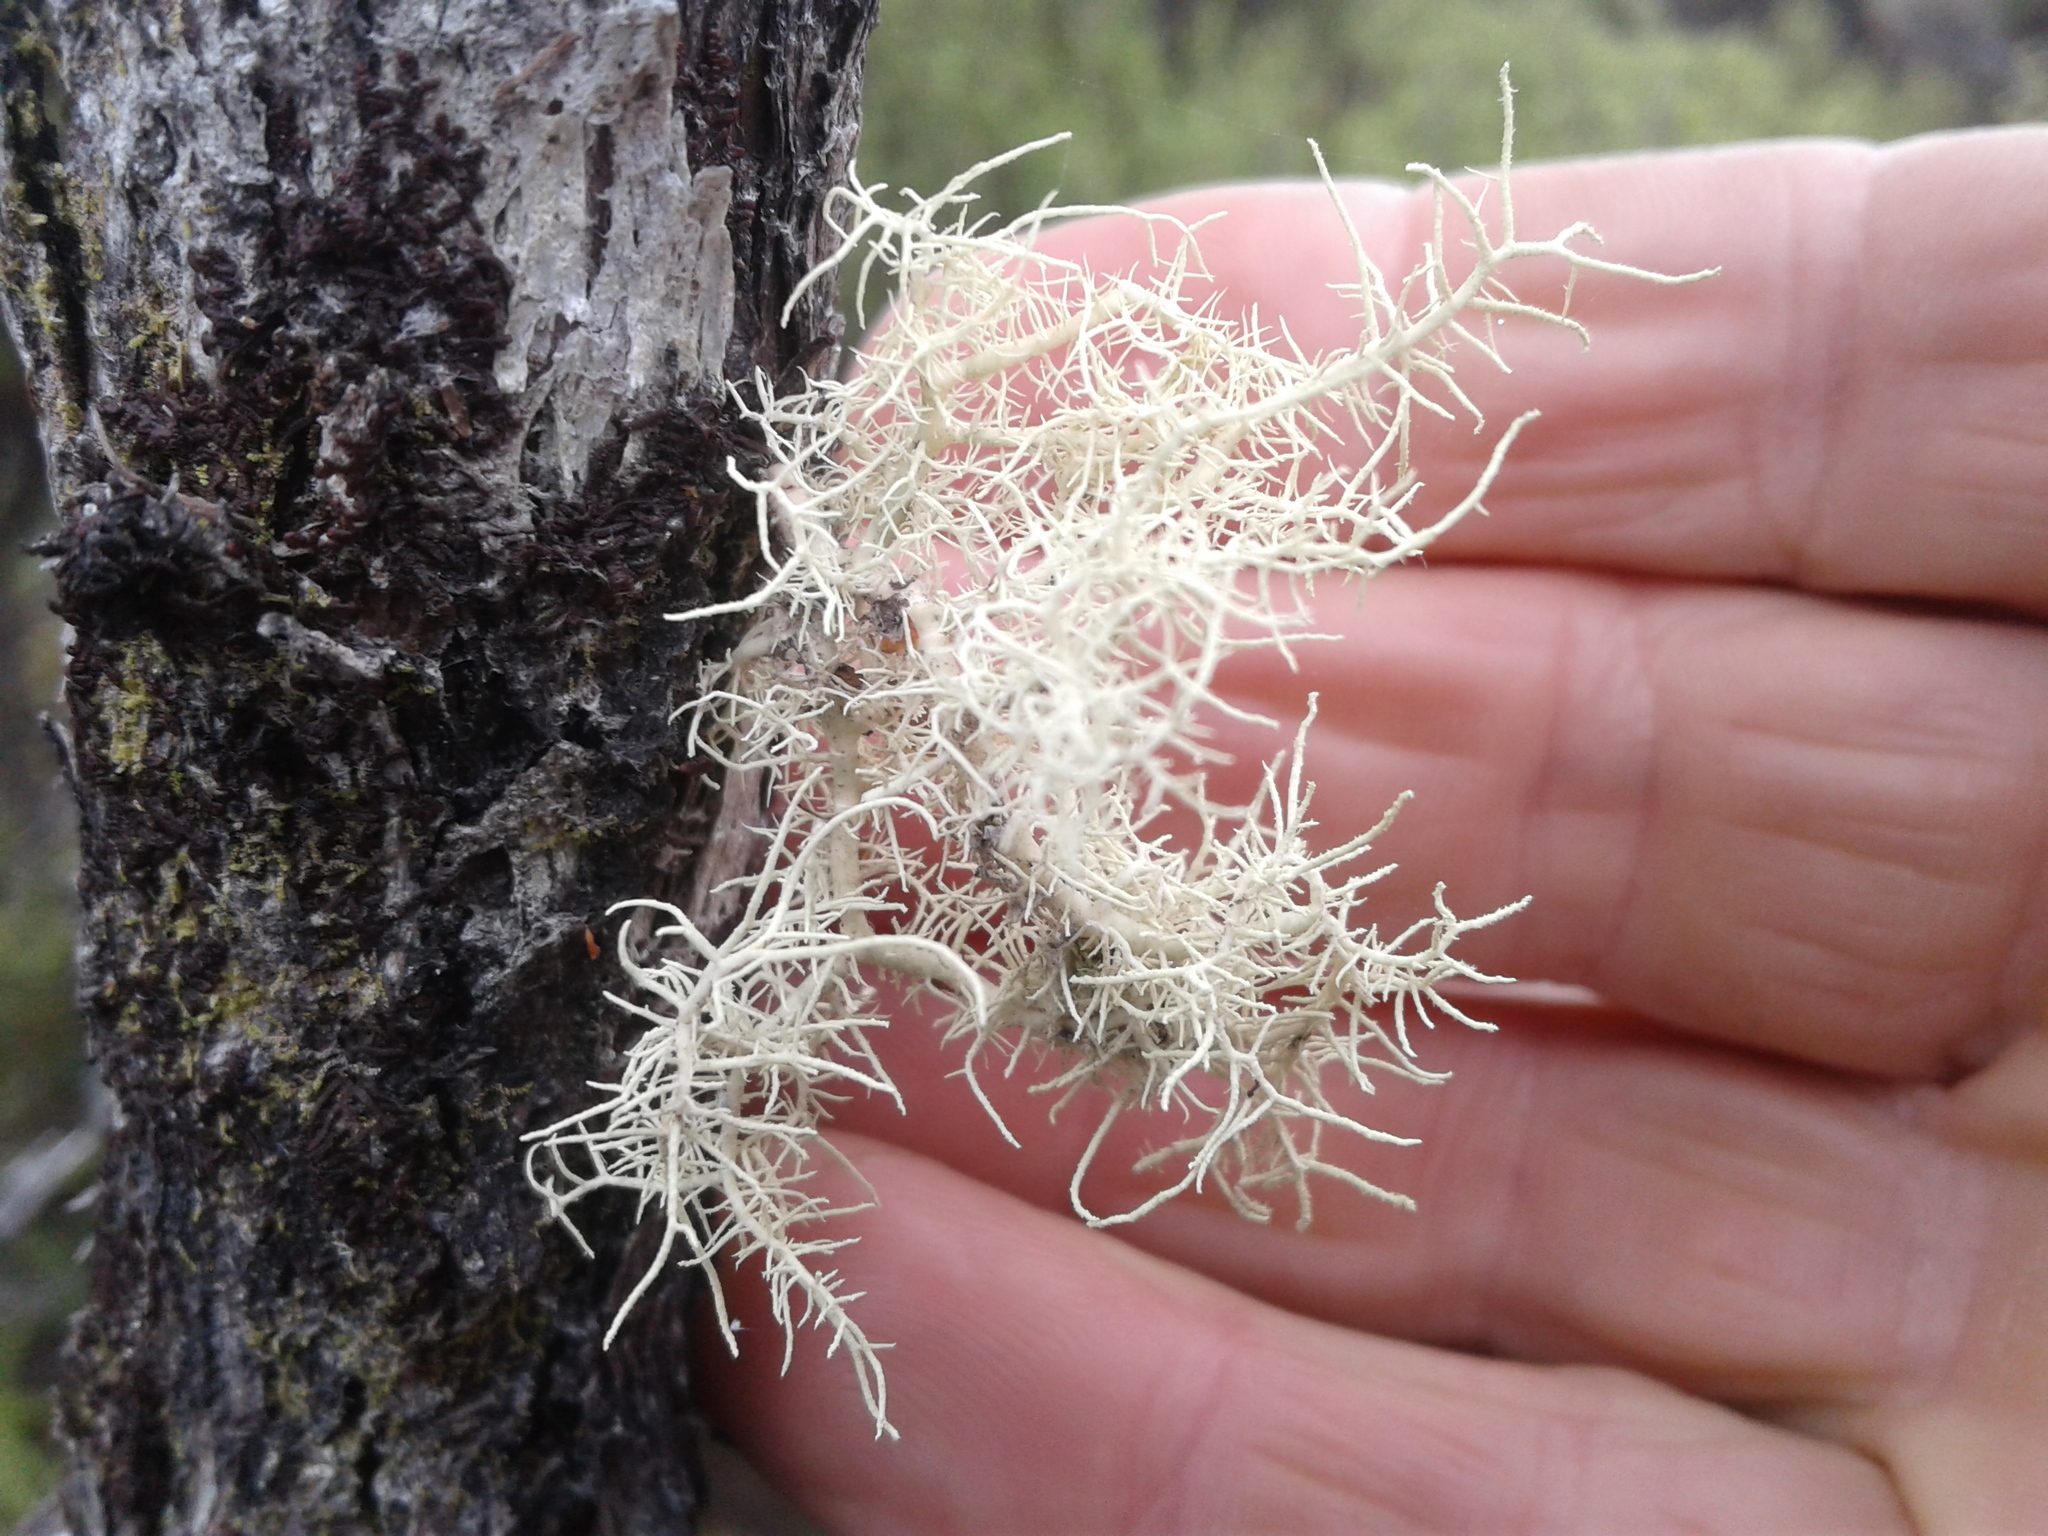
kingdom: Fungi
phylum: Ascomycota
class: Lecanoromycetes
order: Lecanorales
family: Parmeliaceae
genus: Usnea
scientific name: Usnea
